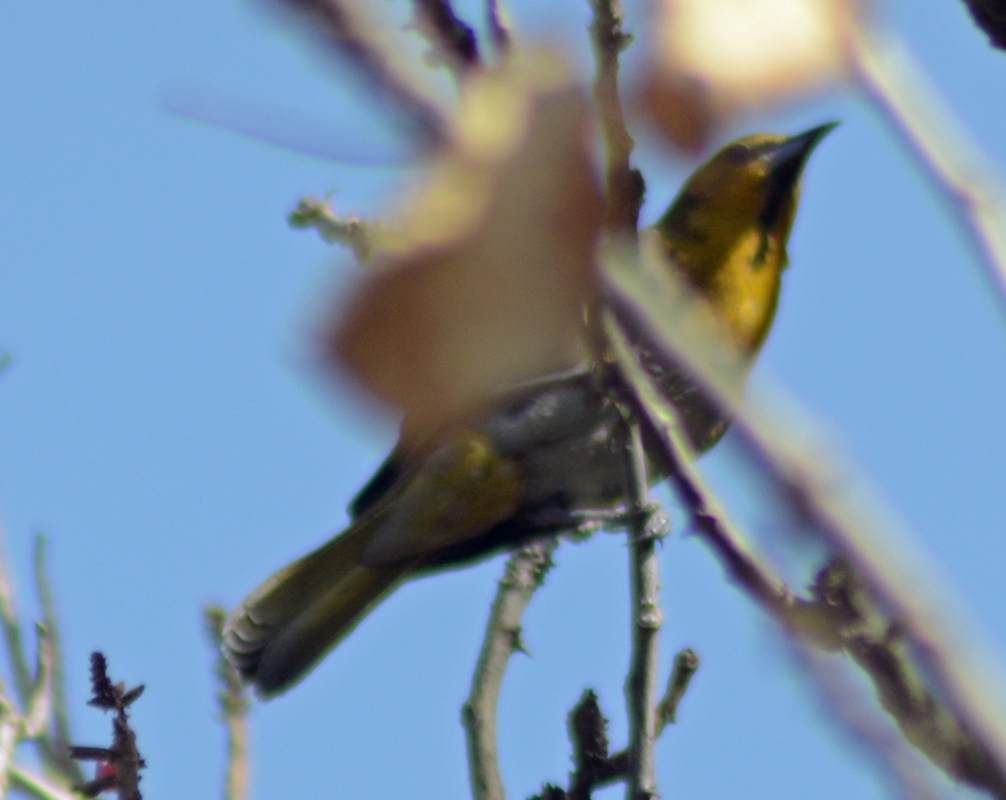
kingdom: Animalia
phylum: Chordata
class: Aves
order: Passeriformes
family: Icteridae
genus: Icterus
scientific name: Icterus abeillei
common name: Black-backed oriole
